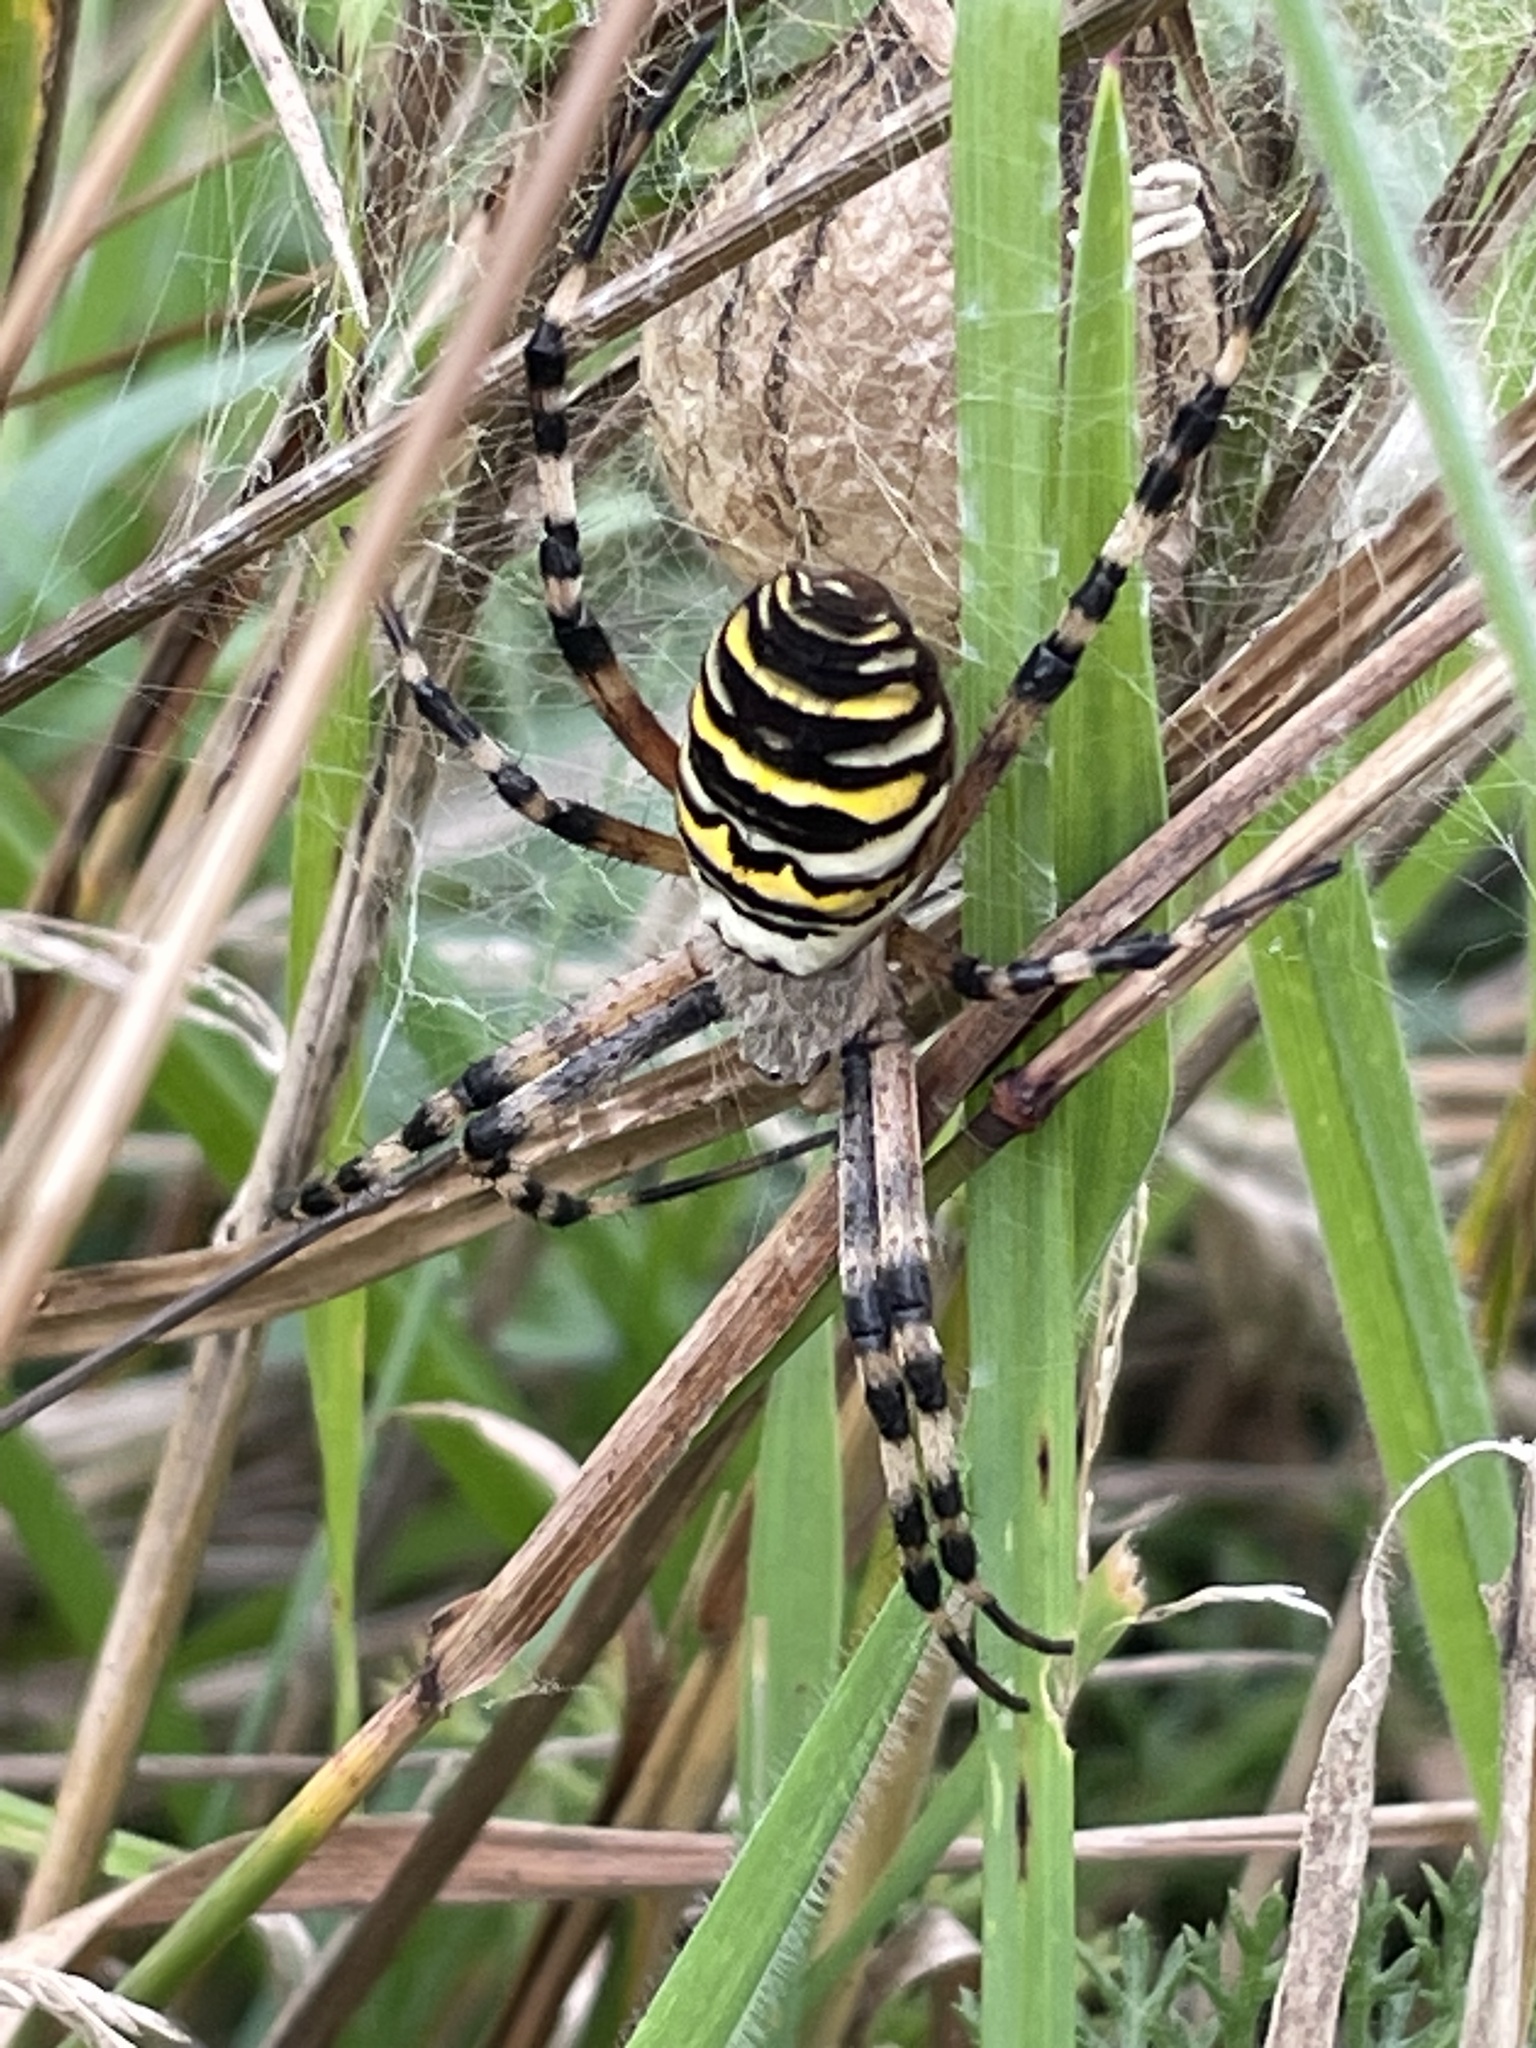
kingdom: Animalia
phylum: Arthropoda
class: Arachnida
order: Araneae
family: Araneidae
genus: Argiope
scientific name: Argiope bruennichi
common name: Wasp spider
